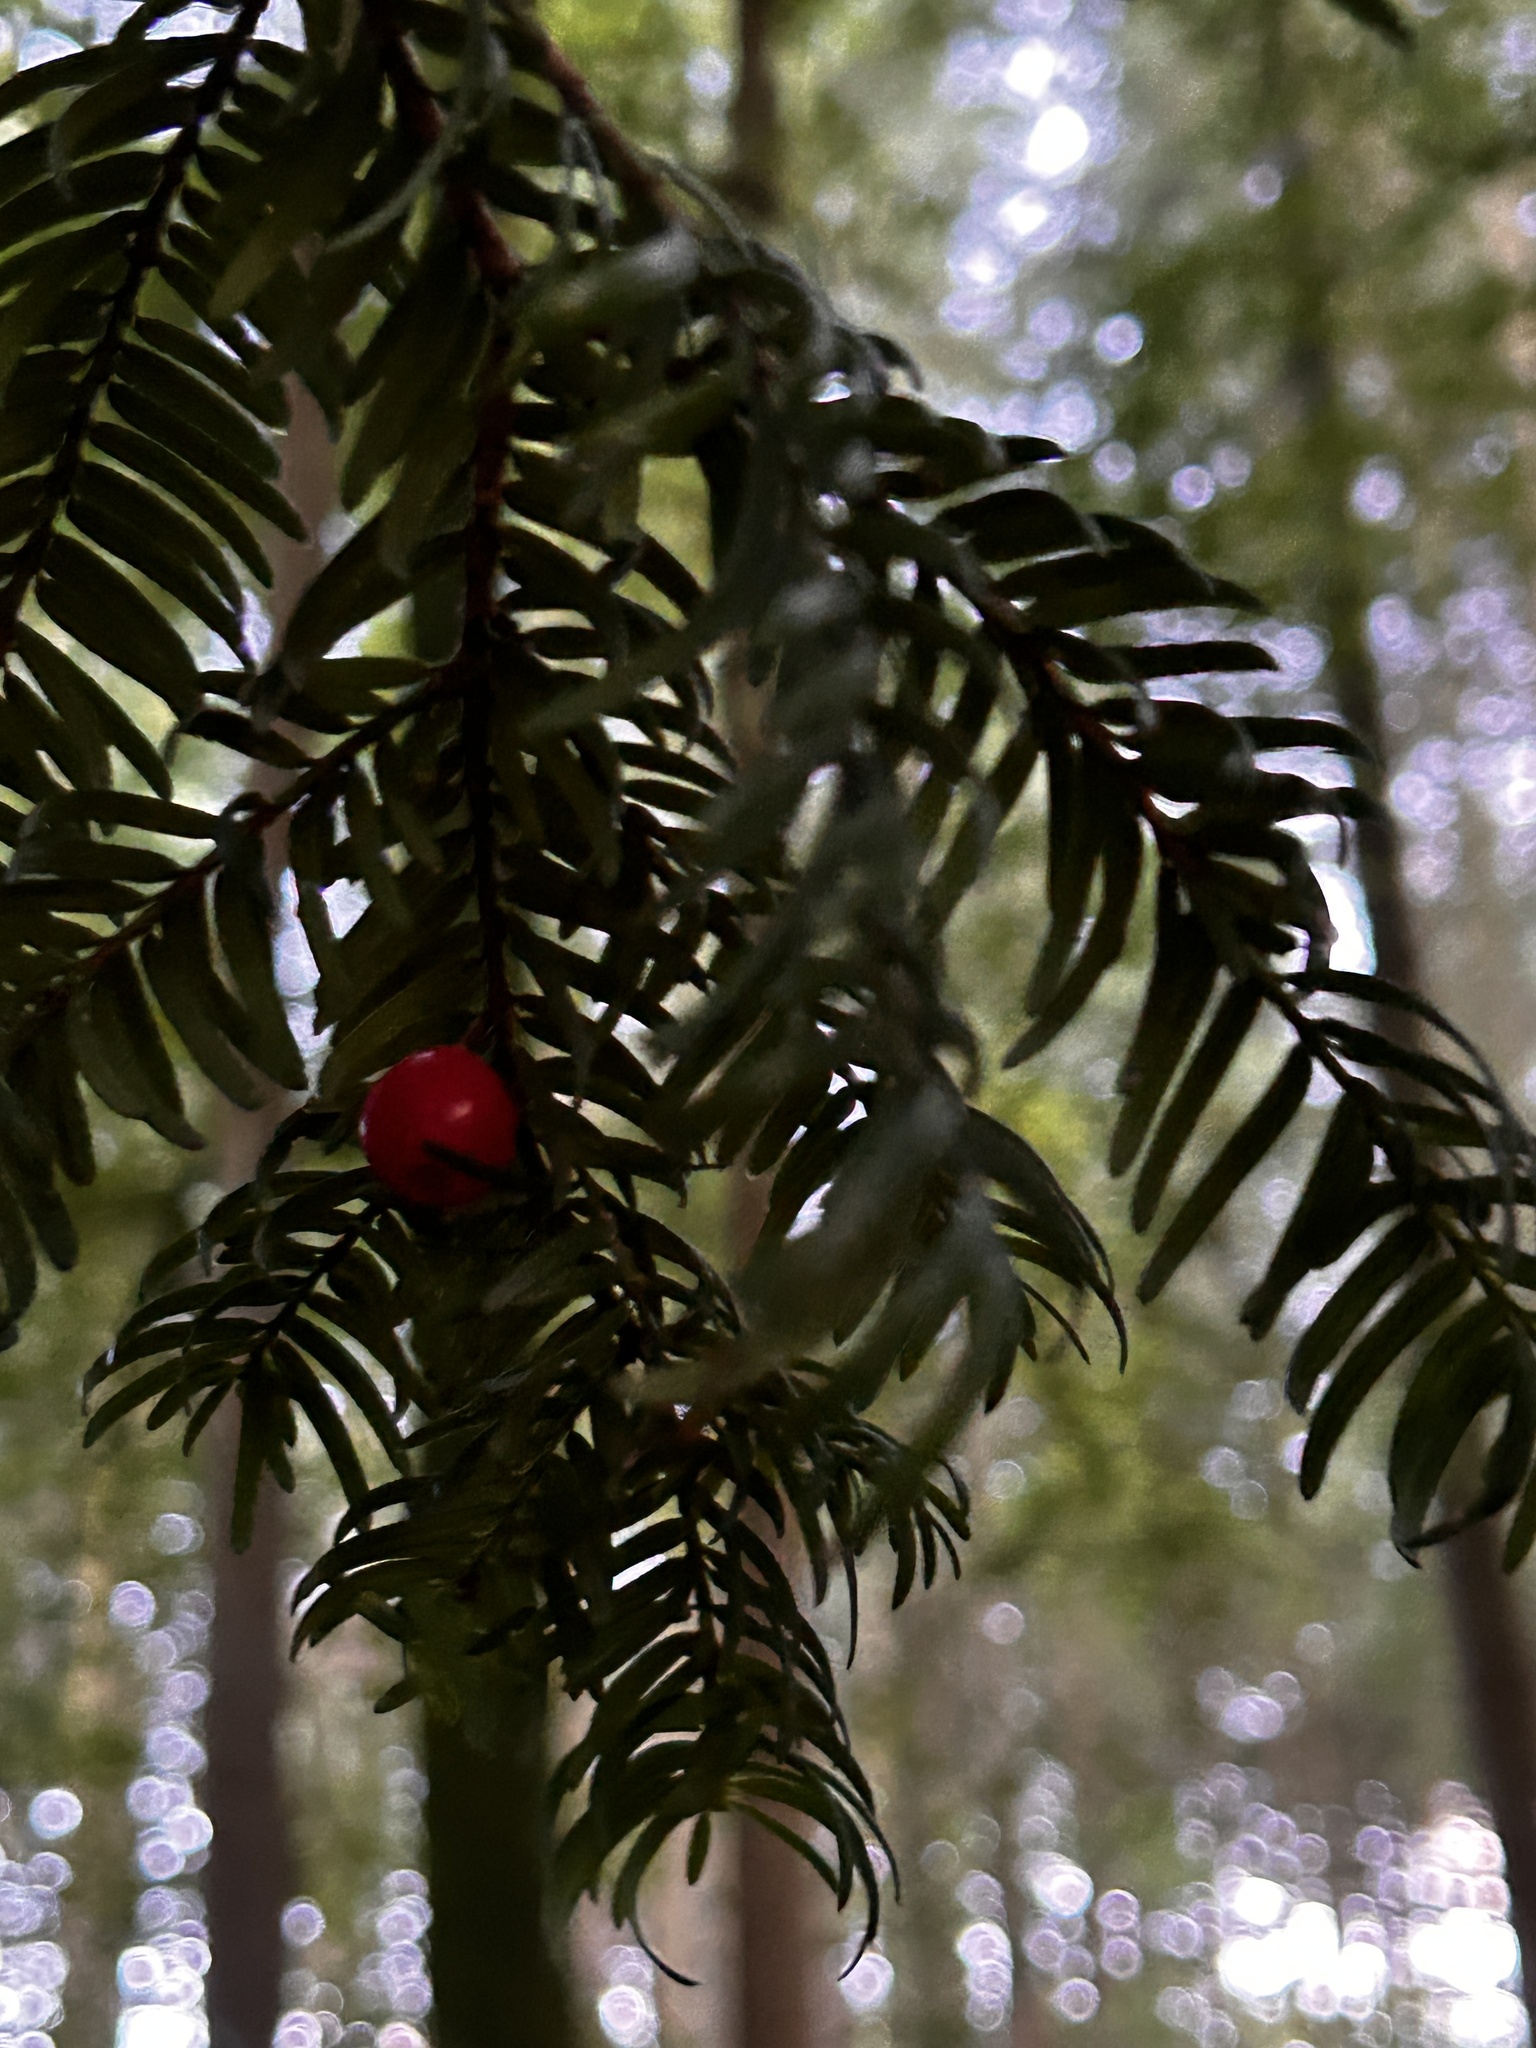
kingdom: Plantae
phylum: Tracheophyta
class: Pinopsida
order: Pinales
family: Taxaceae
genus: Taxus
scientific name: Taxus baccata
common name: Yew
